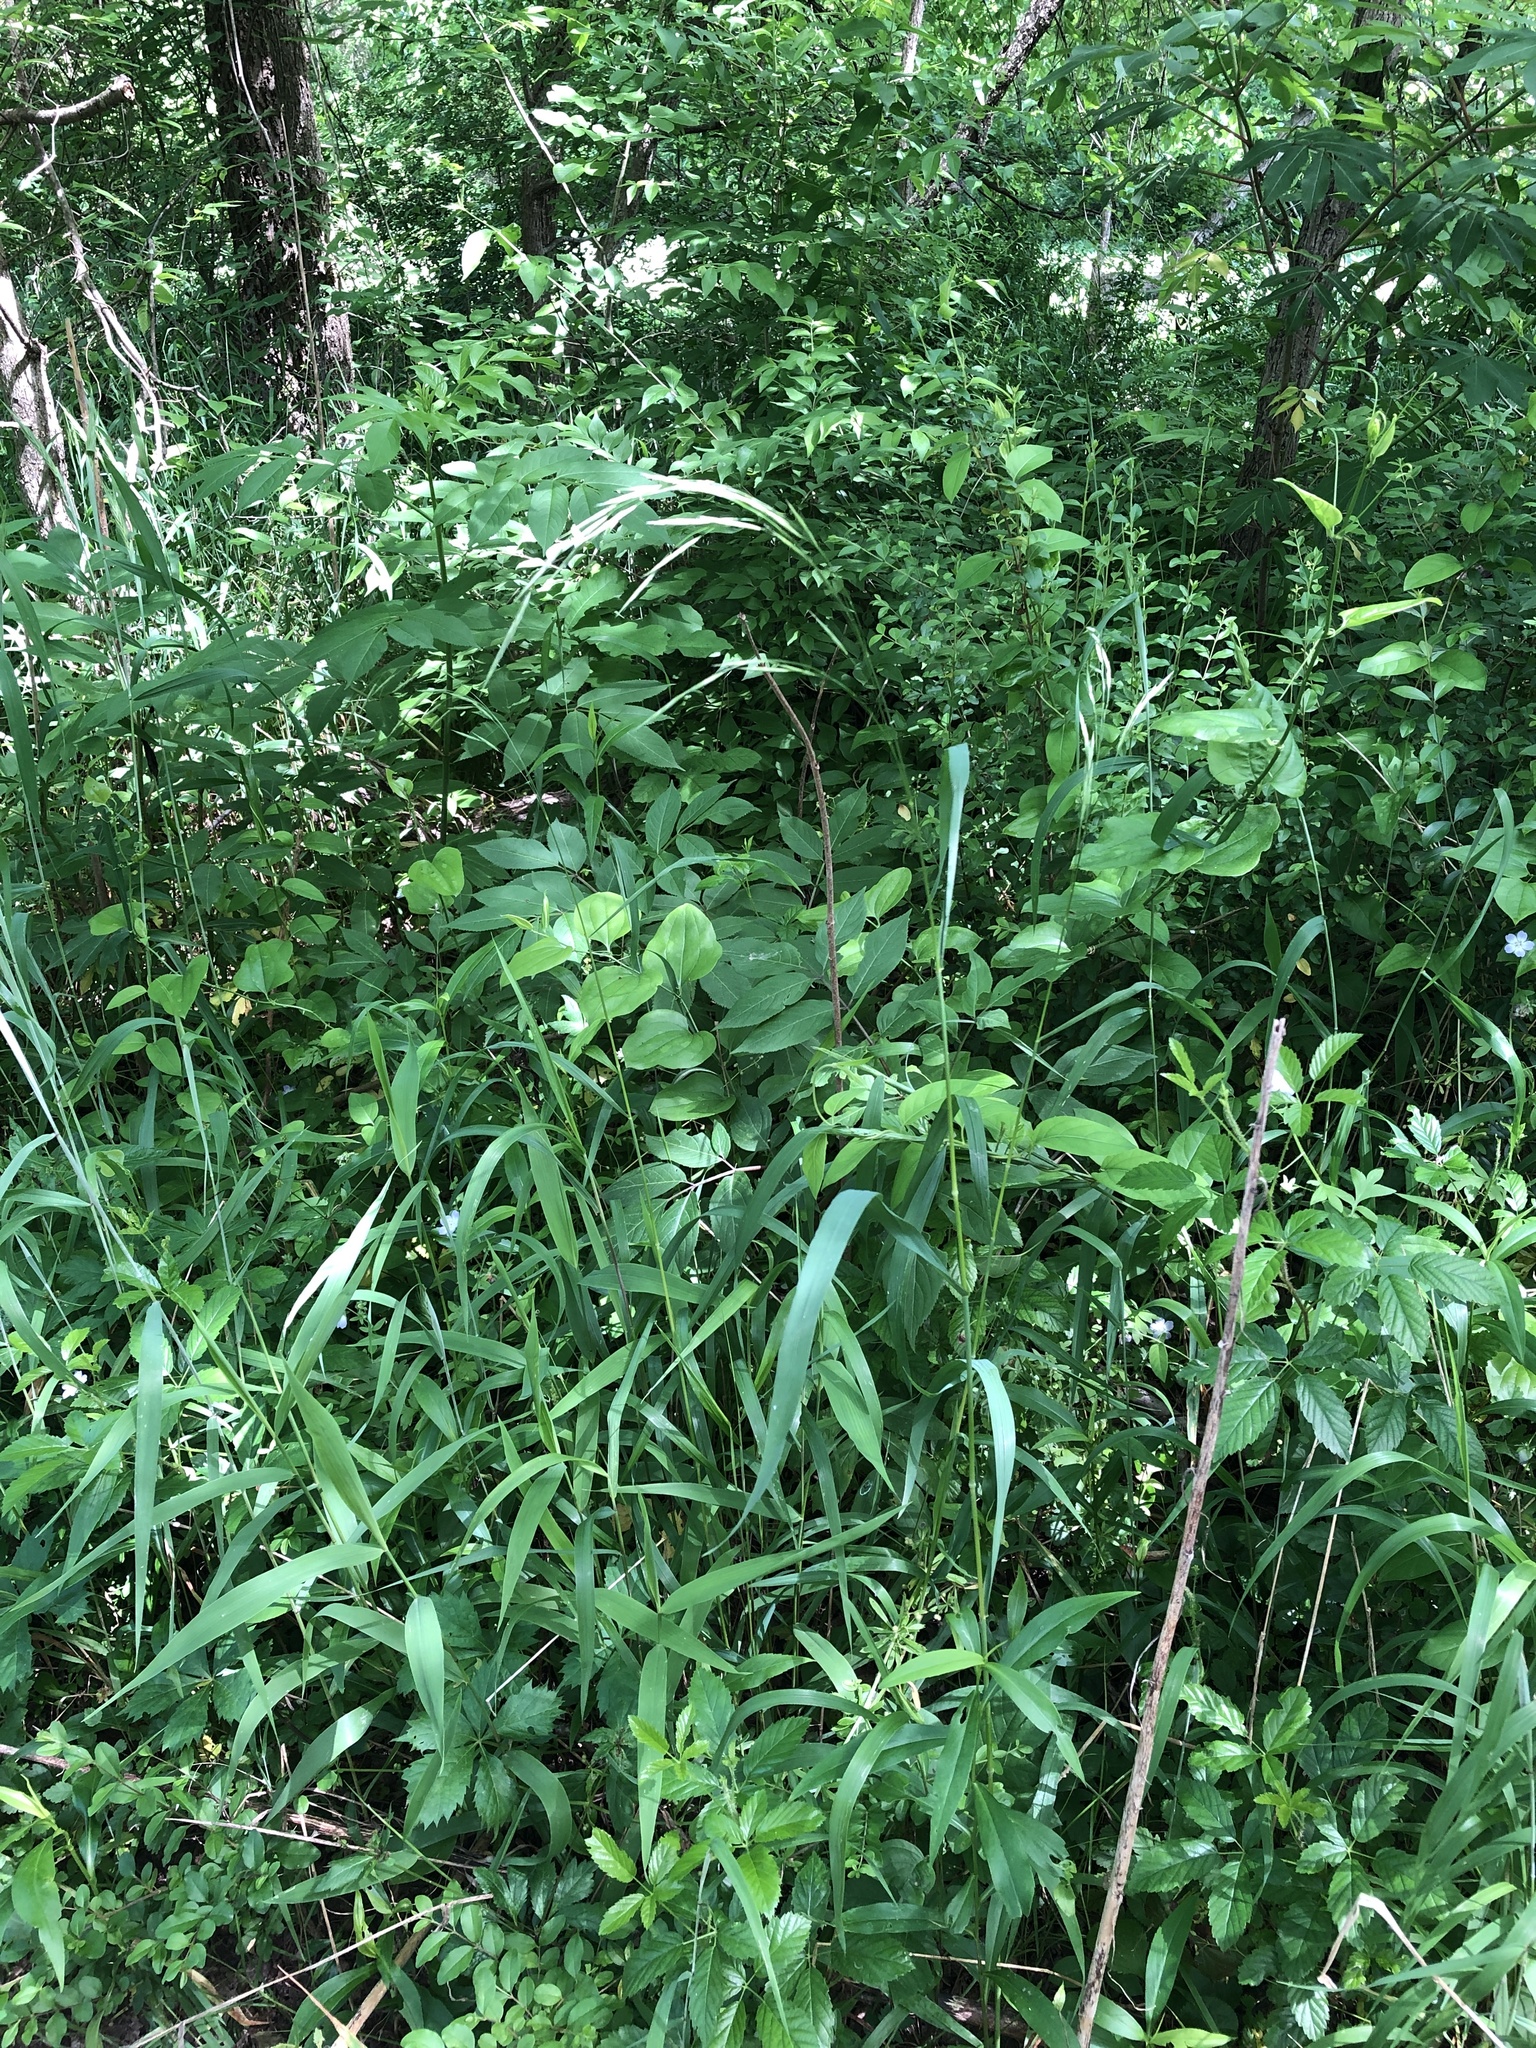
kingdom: Plantae
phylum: Tracheophyta
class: Liliopsida
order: Poales
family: Poaceae
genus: Bromus
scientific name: Bromus pubescens
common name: Hairy wood brome grass
